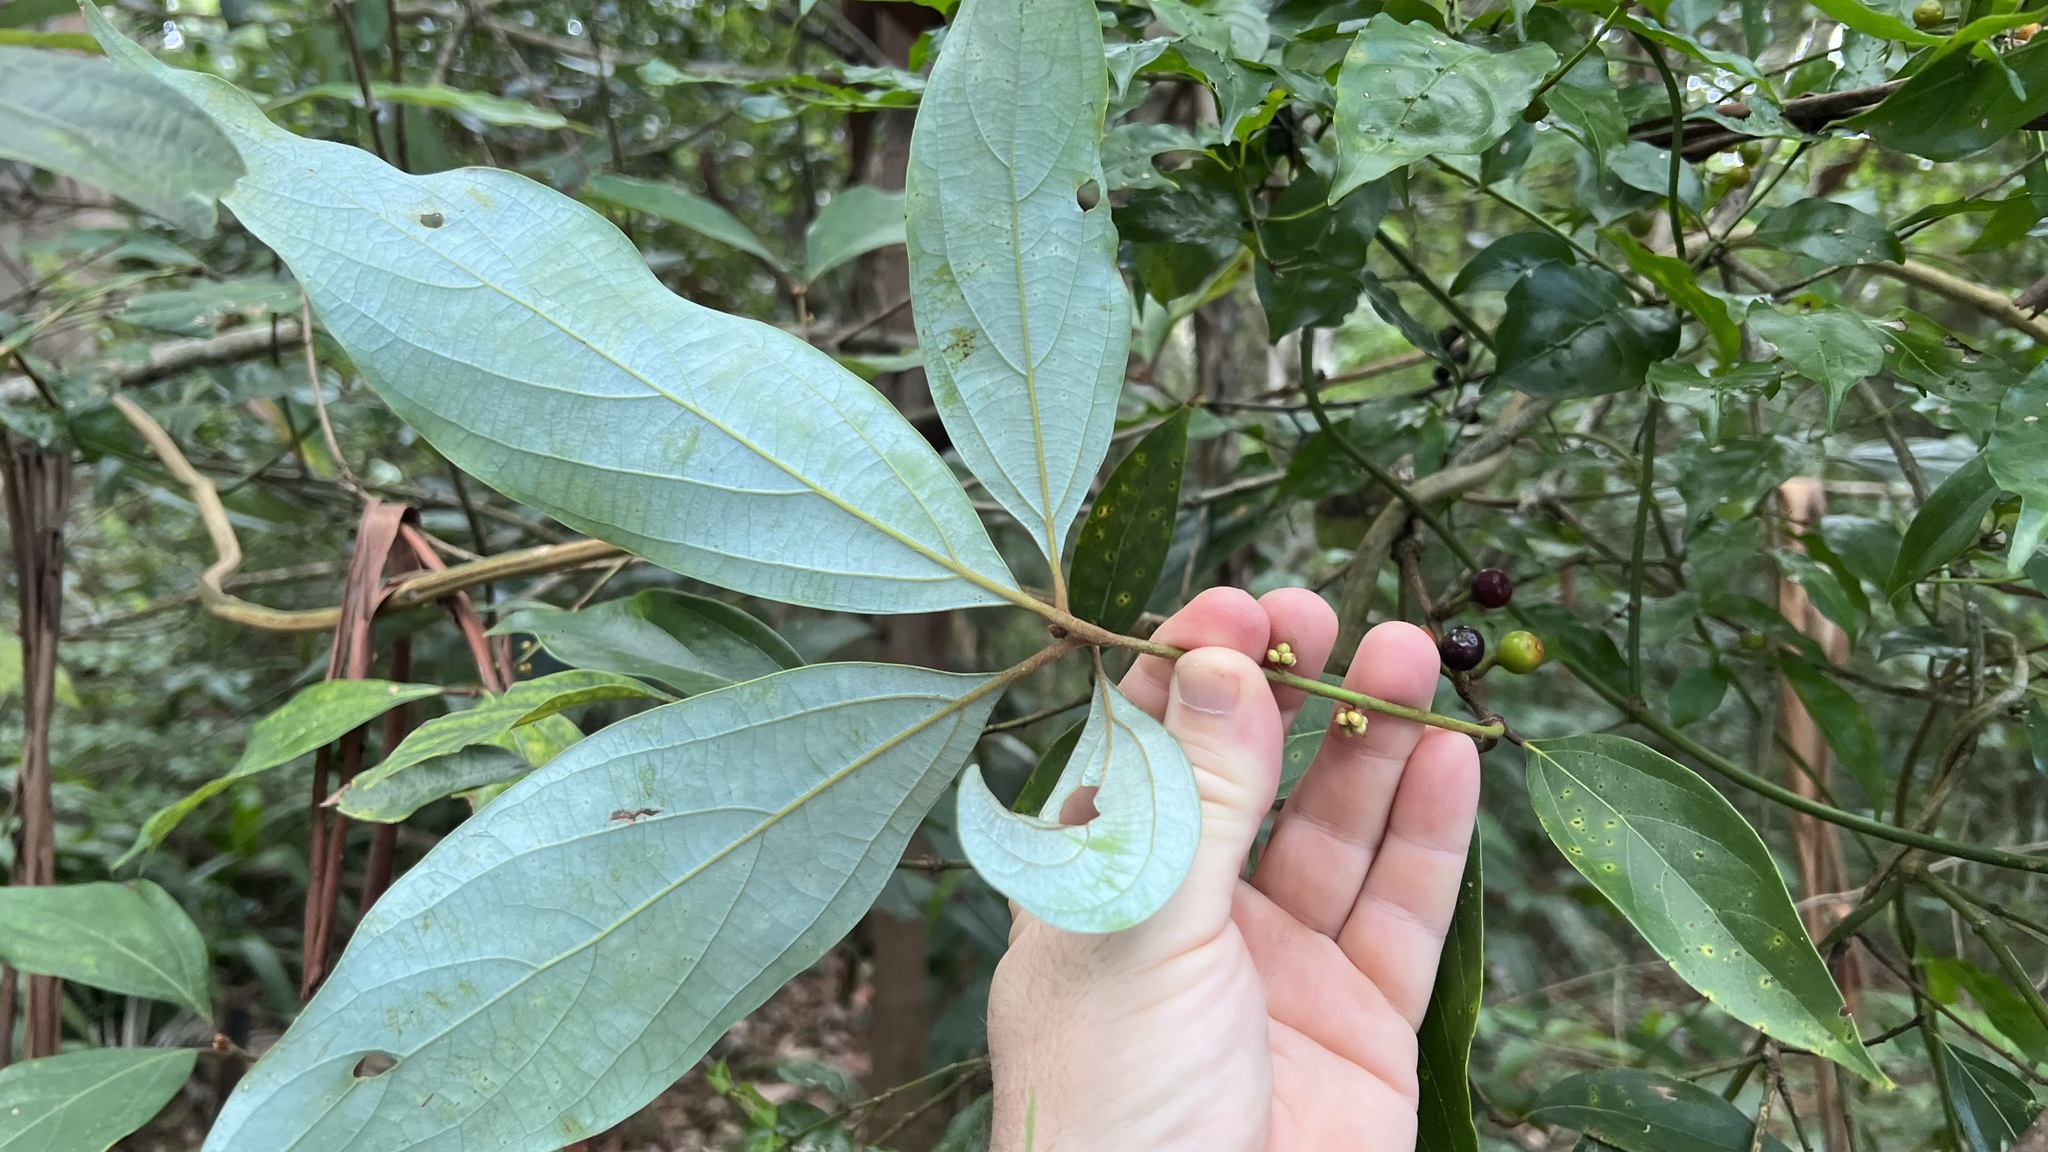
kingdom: Plantae
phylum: Tracheophyta
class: Magnoliopsida
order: Laurales
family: Lauraceae
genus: Neolitsea
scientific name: Neolitsea dealbata
